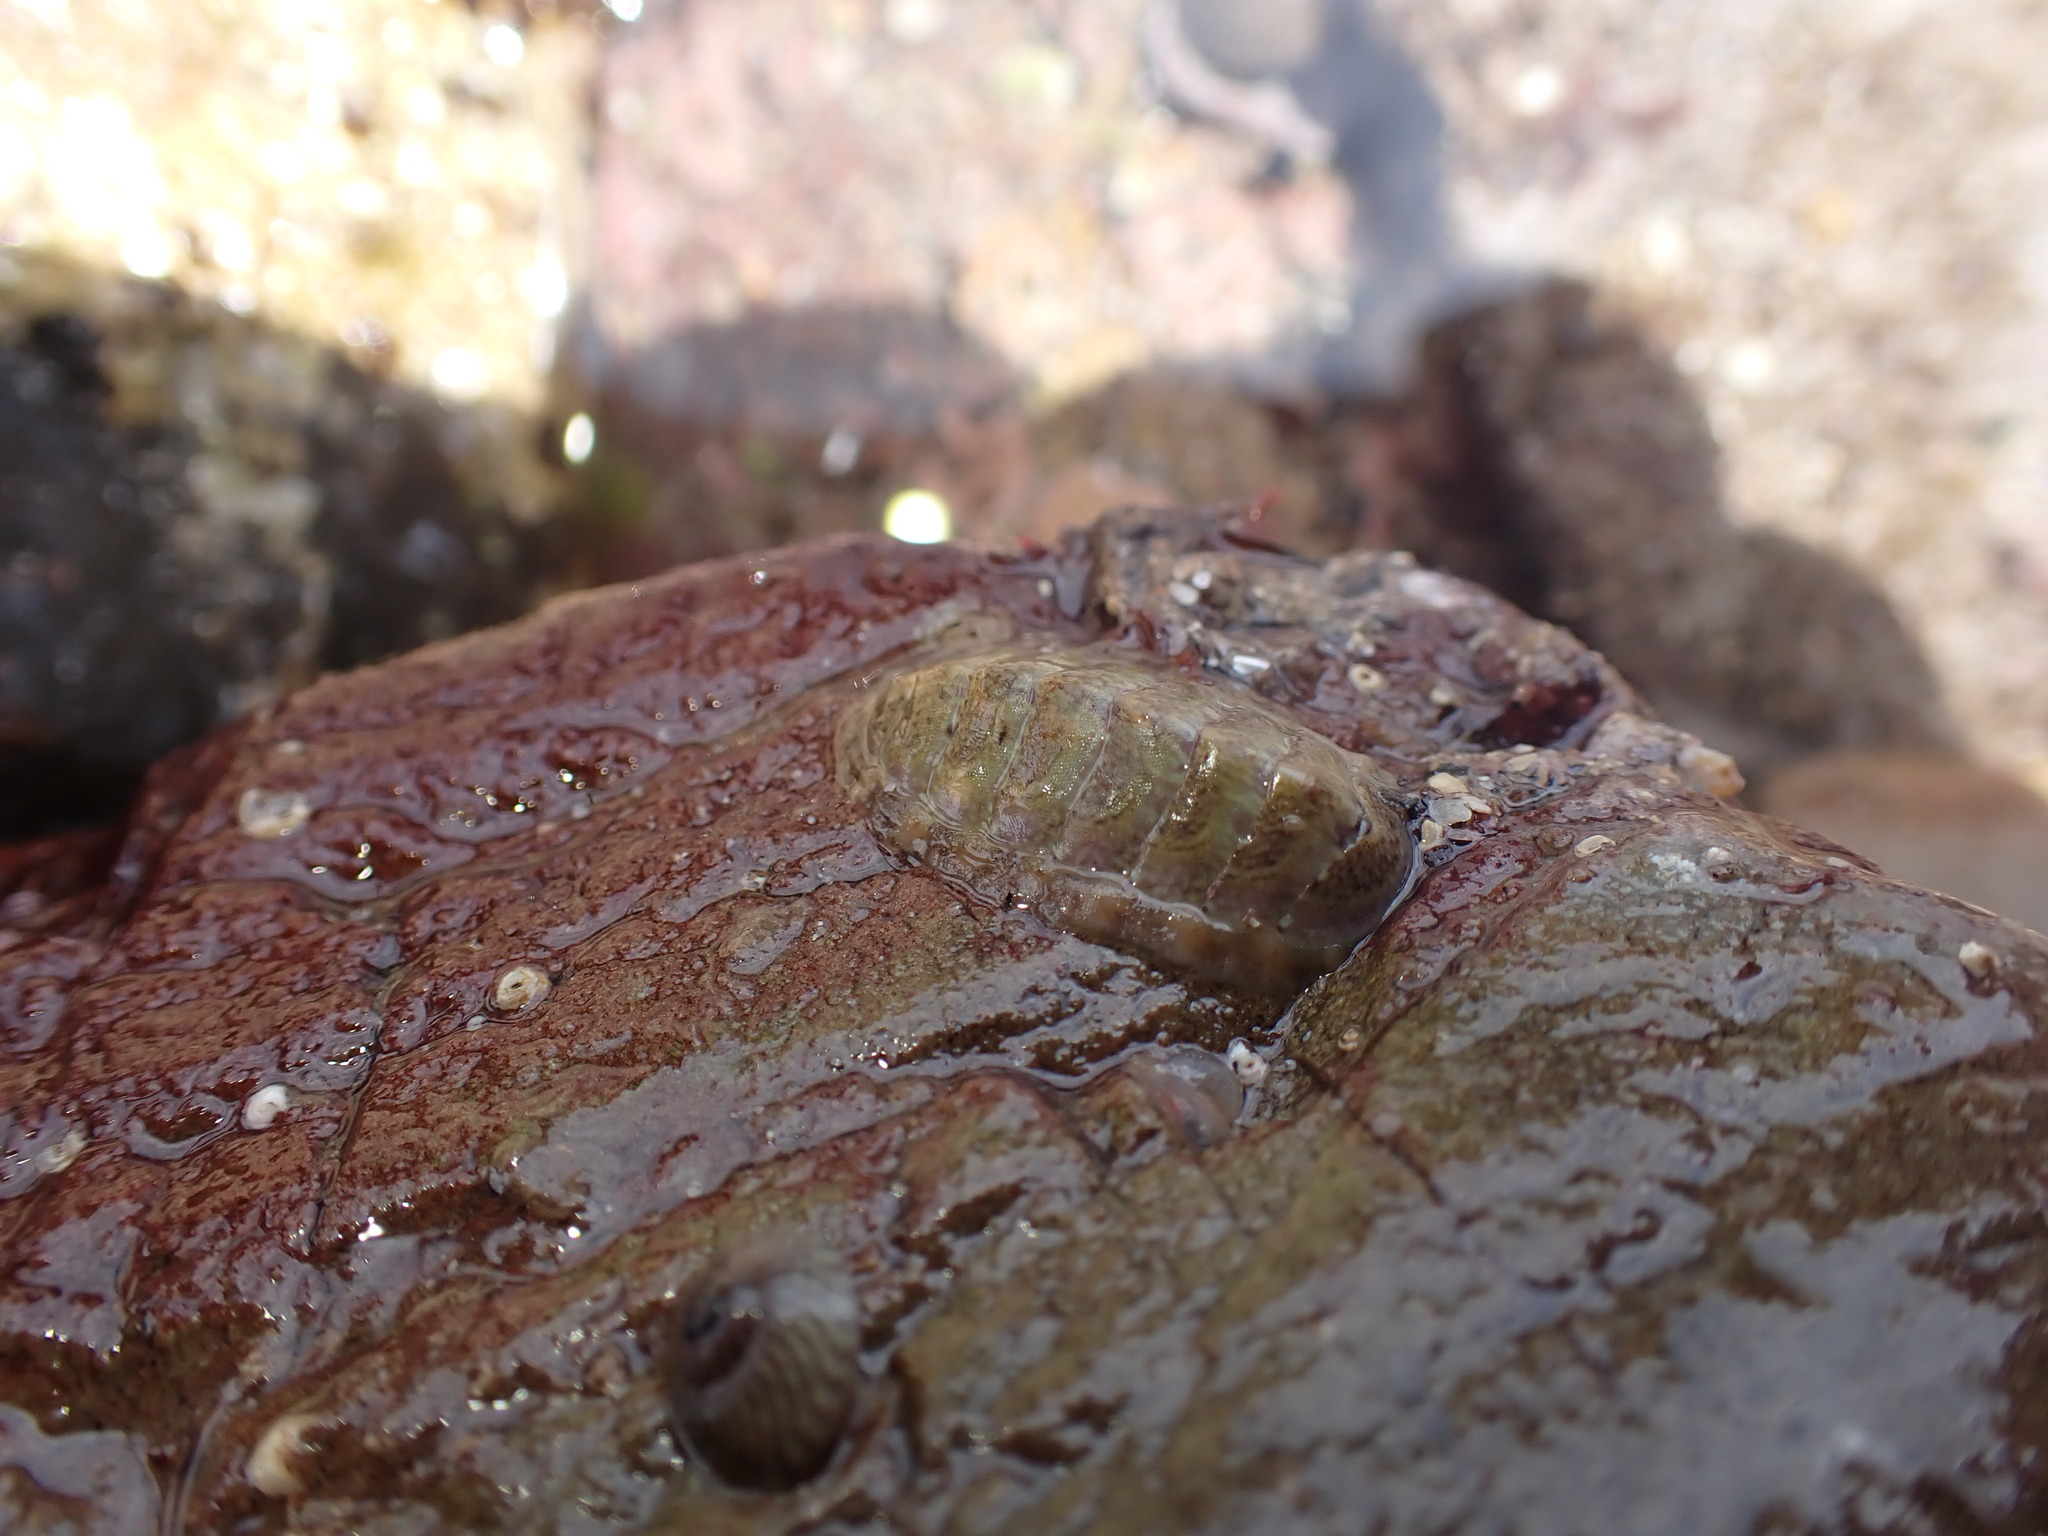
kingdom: Animalia
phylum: Mollusca
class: Polyplacophora
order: Chitonida
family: Tonicellidae
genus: Lepidochitona
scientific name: Lepidochitona cinerea
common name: Cinereous chiton
